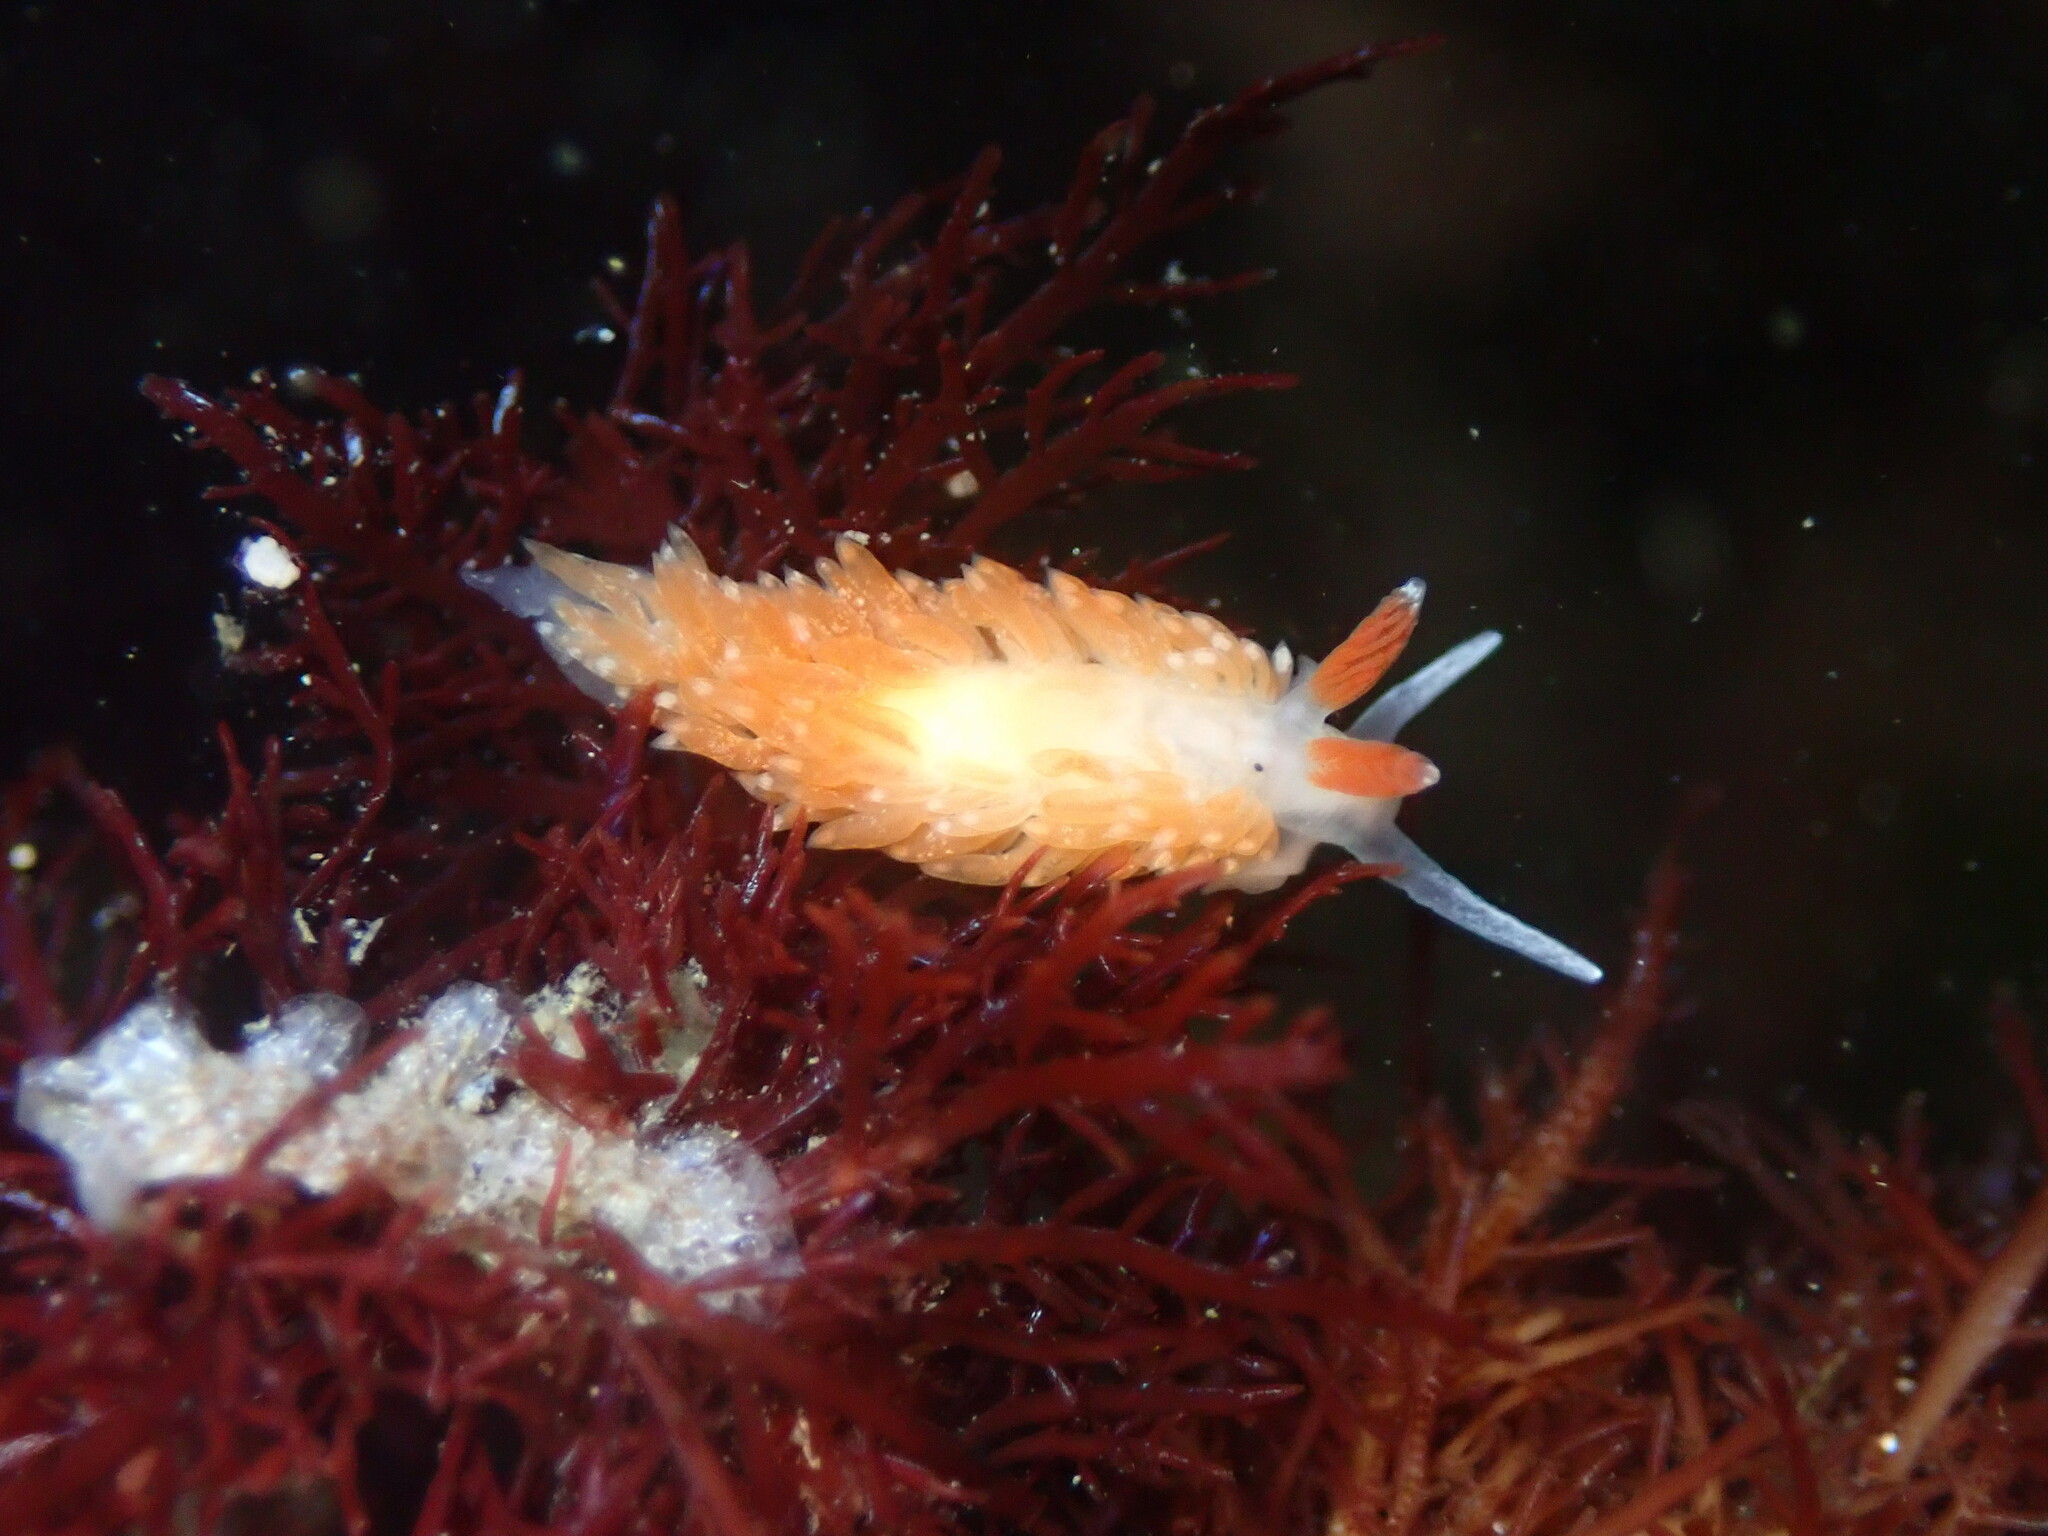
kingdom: Animalia
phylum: Mollusca
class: Gastropoda
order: Nudibranchia
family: Aeolidiidae
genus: Anteaeolidiella
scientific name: Anteaeolidiella oliviae
